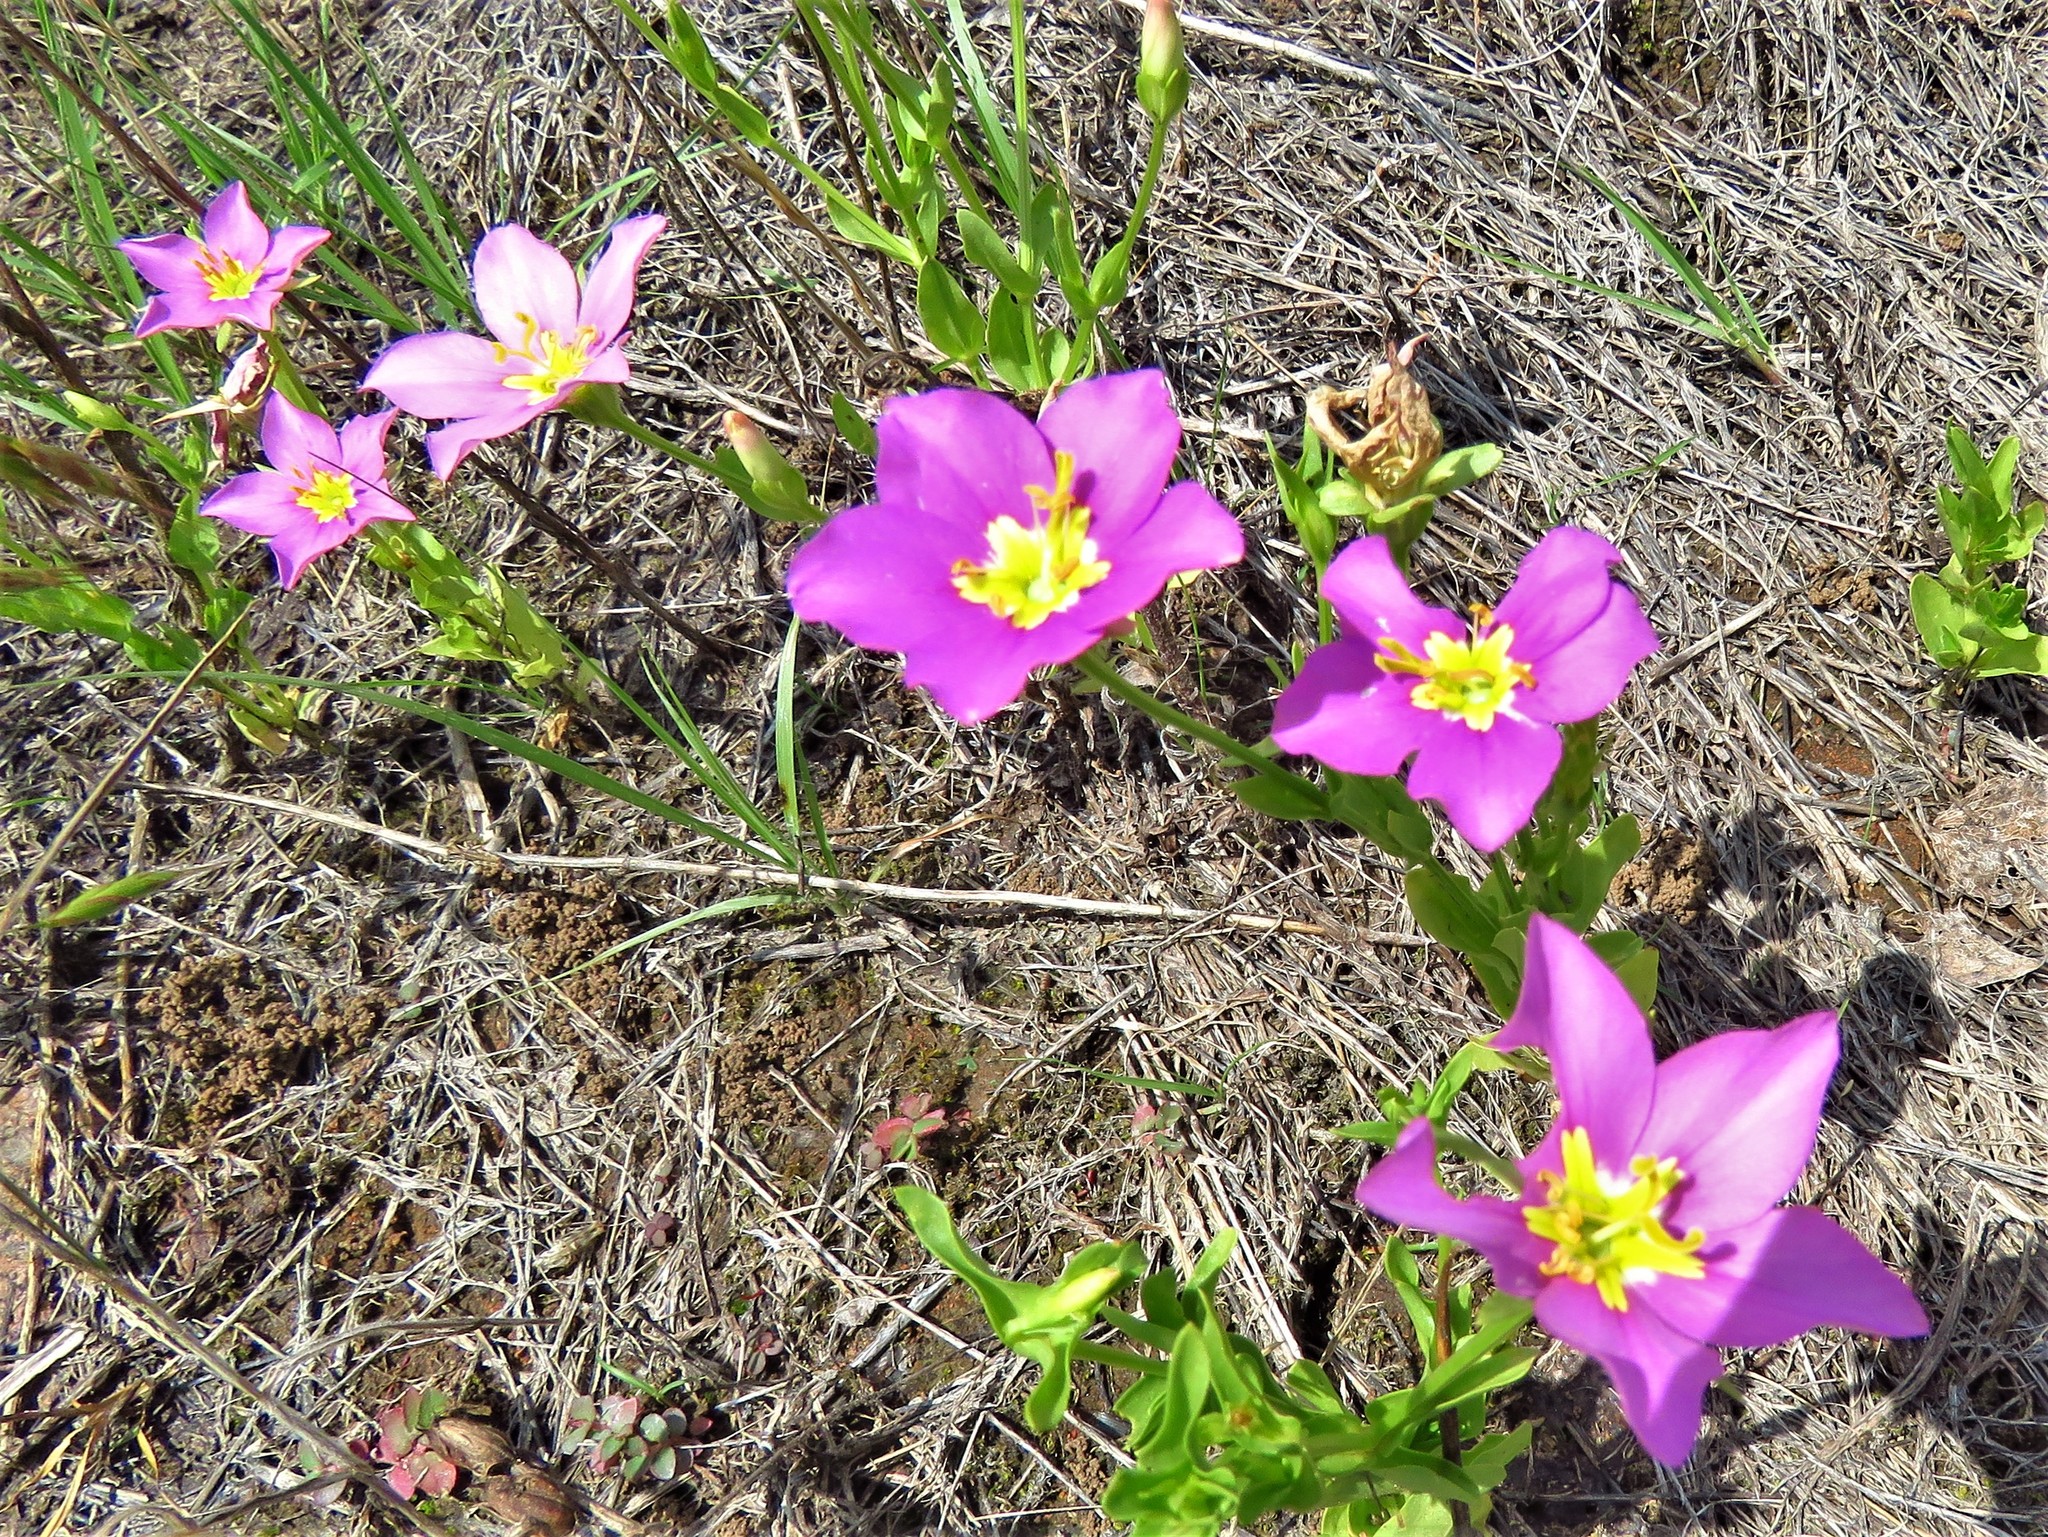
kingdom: Plantae
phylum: Tracheophyta
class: Magnoliopsida
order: Gentianales
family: Gentianaceae
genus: Sabatia
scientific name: Sabatia campestris
